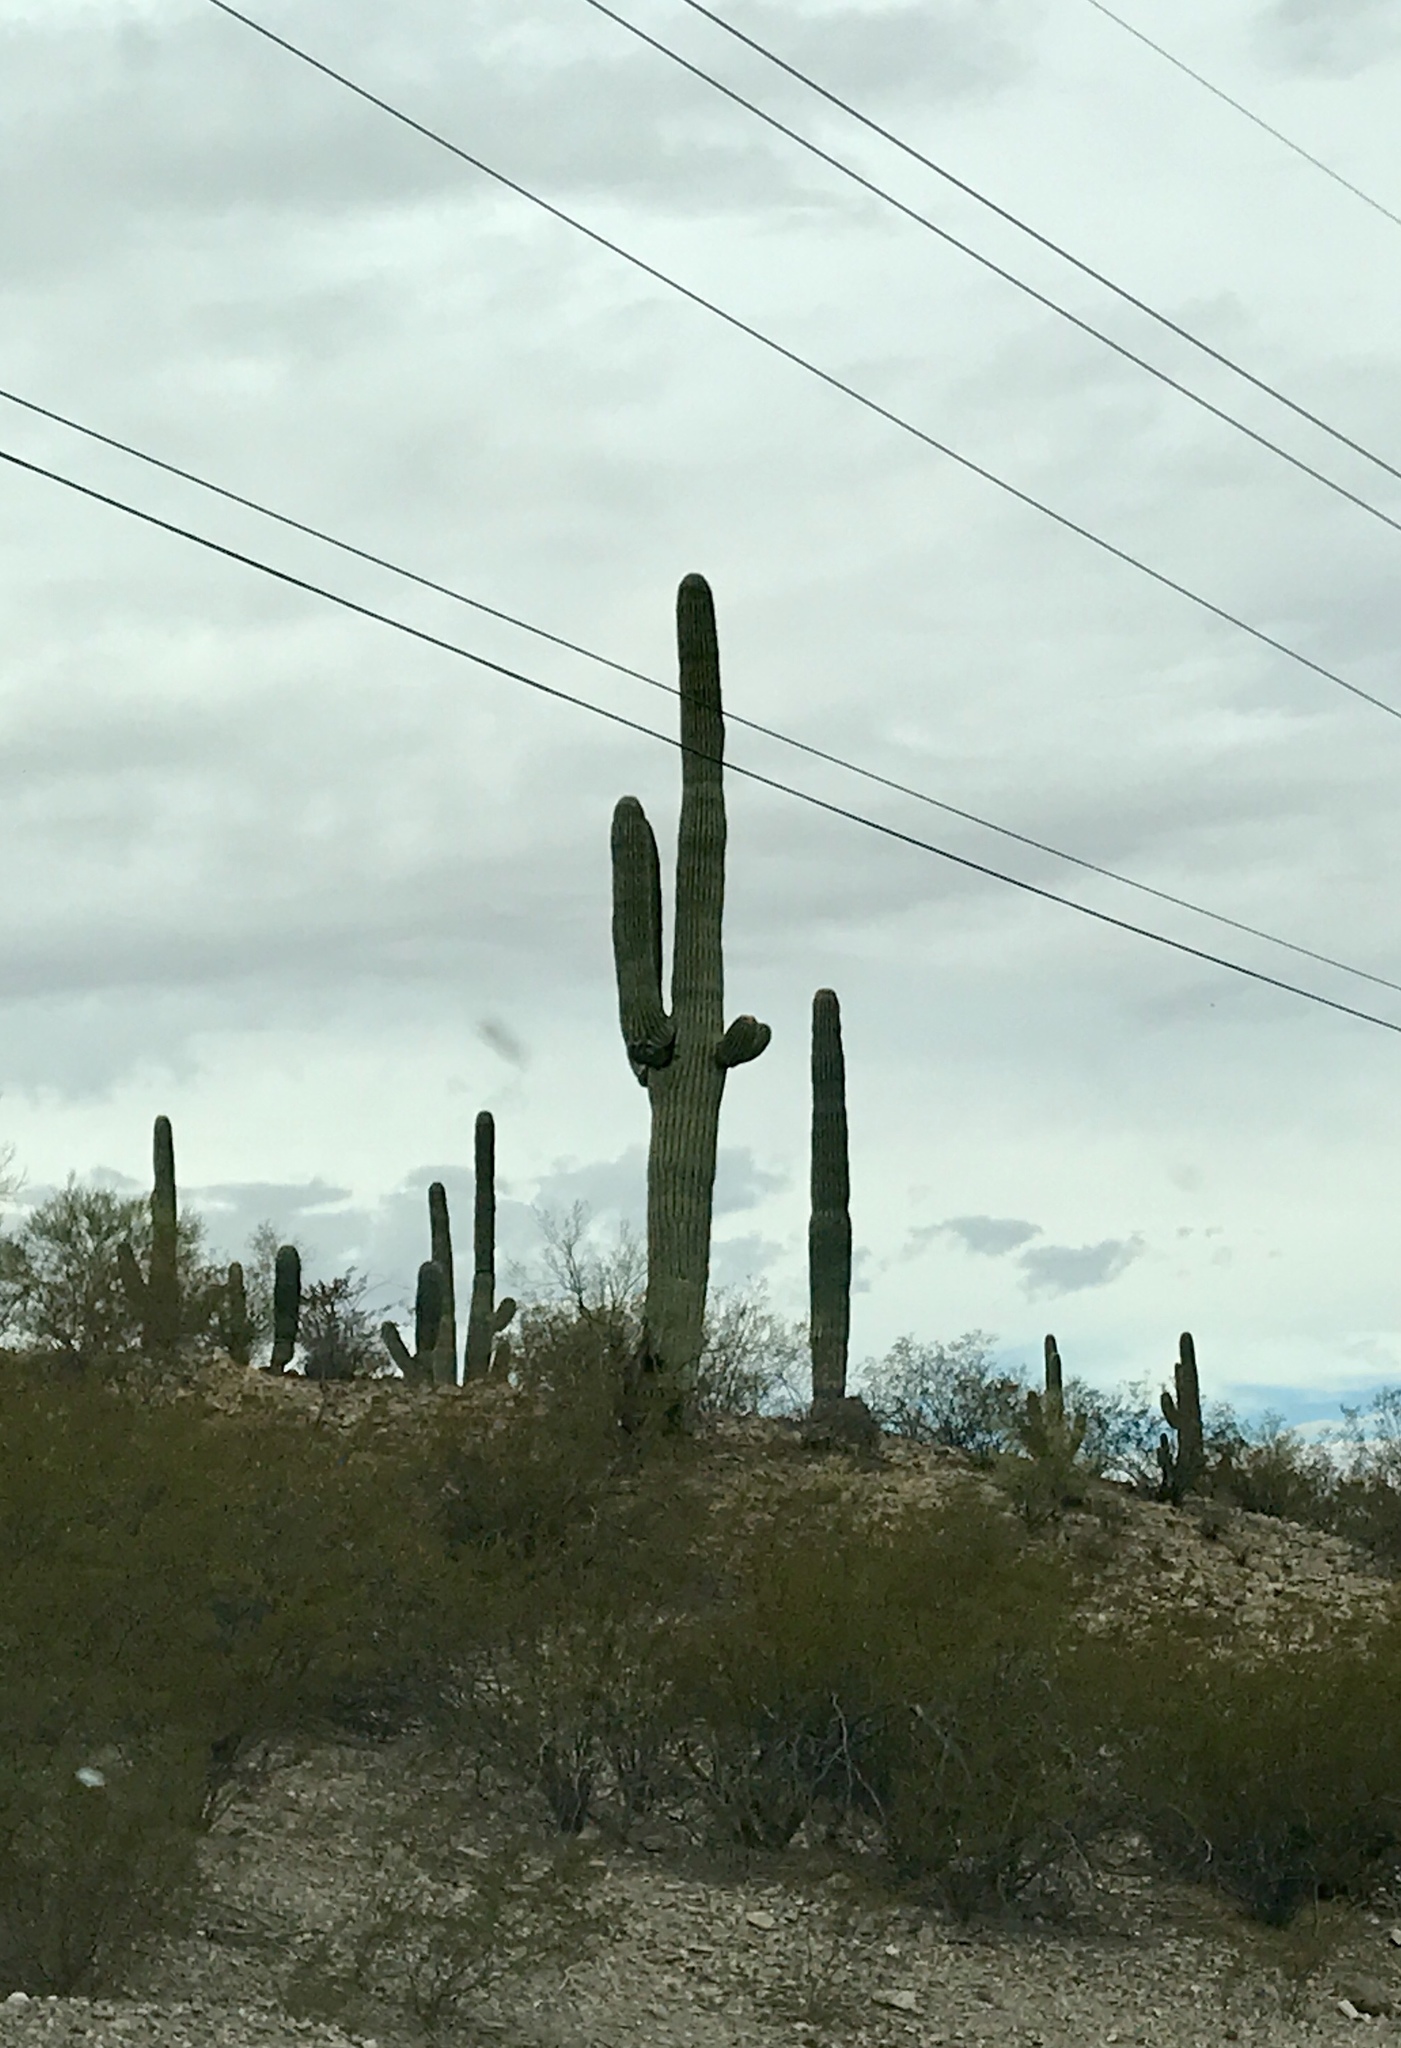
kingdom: Plantae
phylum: Tracheophyta
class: Magnoliopsida
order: Caryophyllales
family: Cactaceae
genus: Carnegiea
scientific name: Carnegiea gigantea
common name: Saguaro
